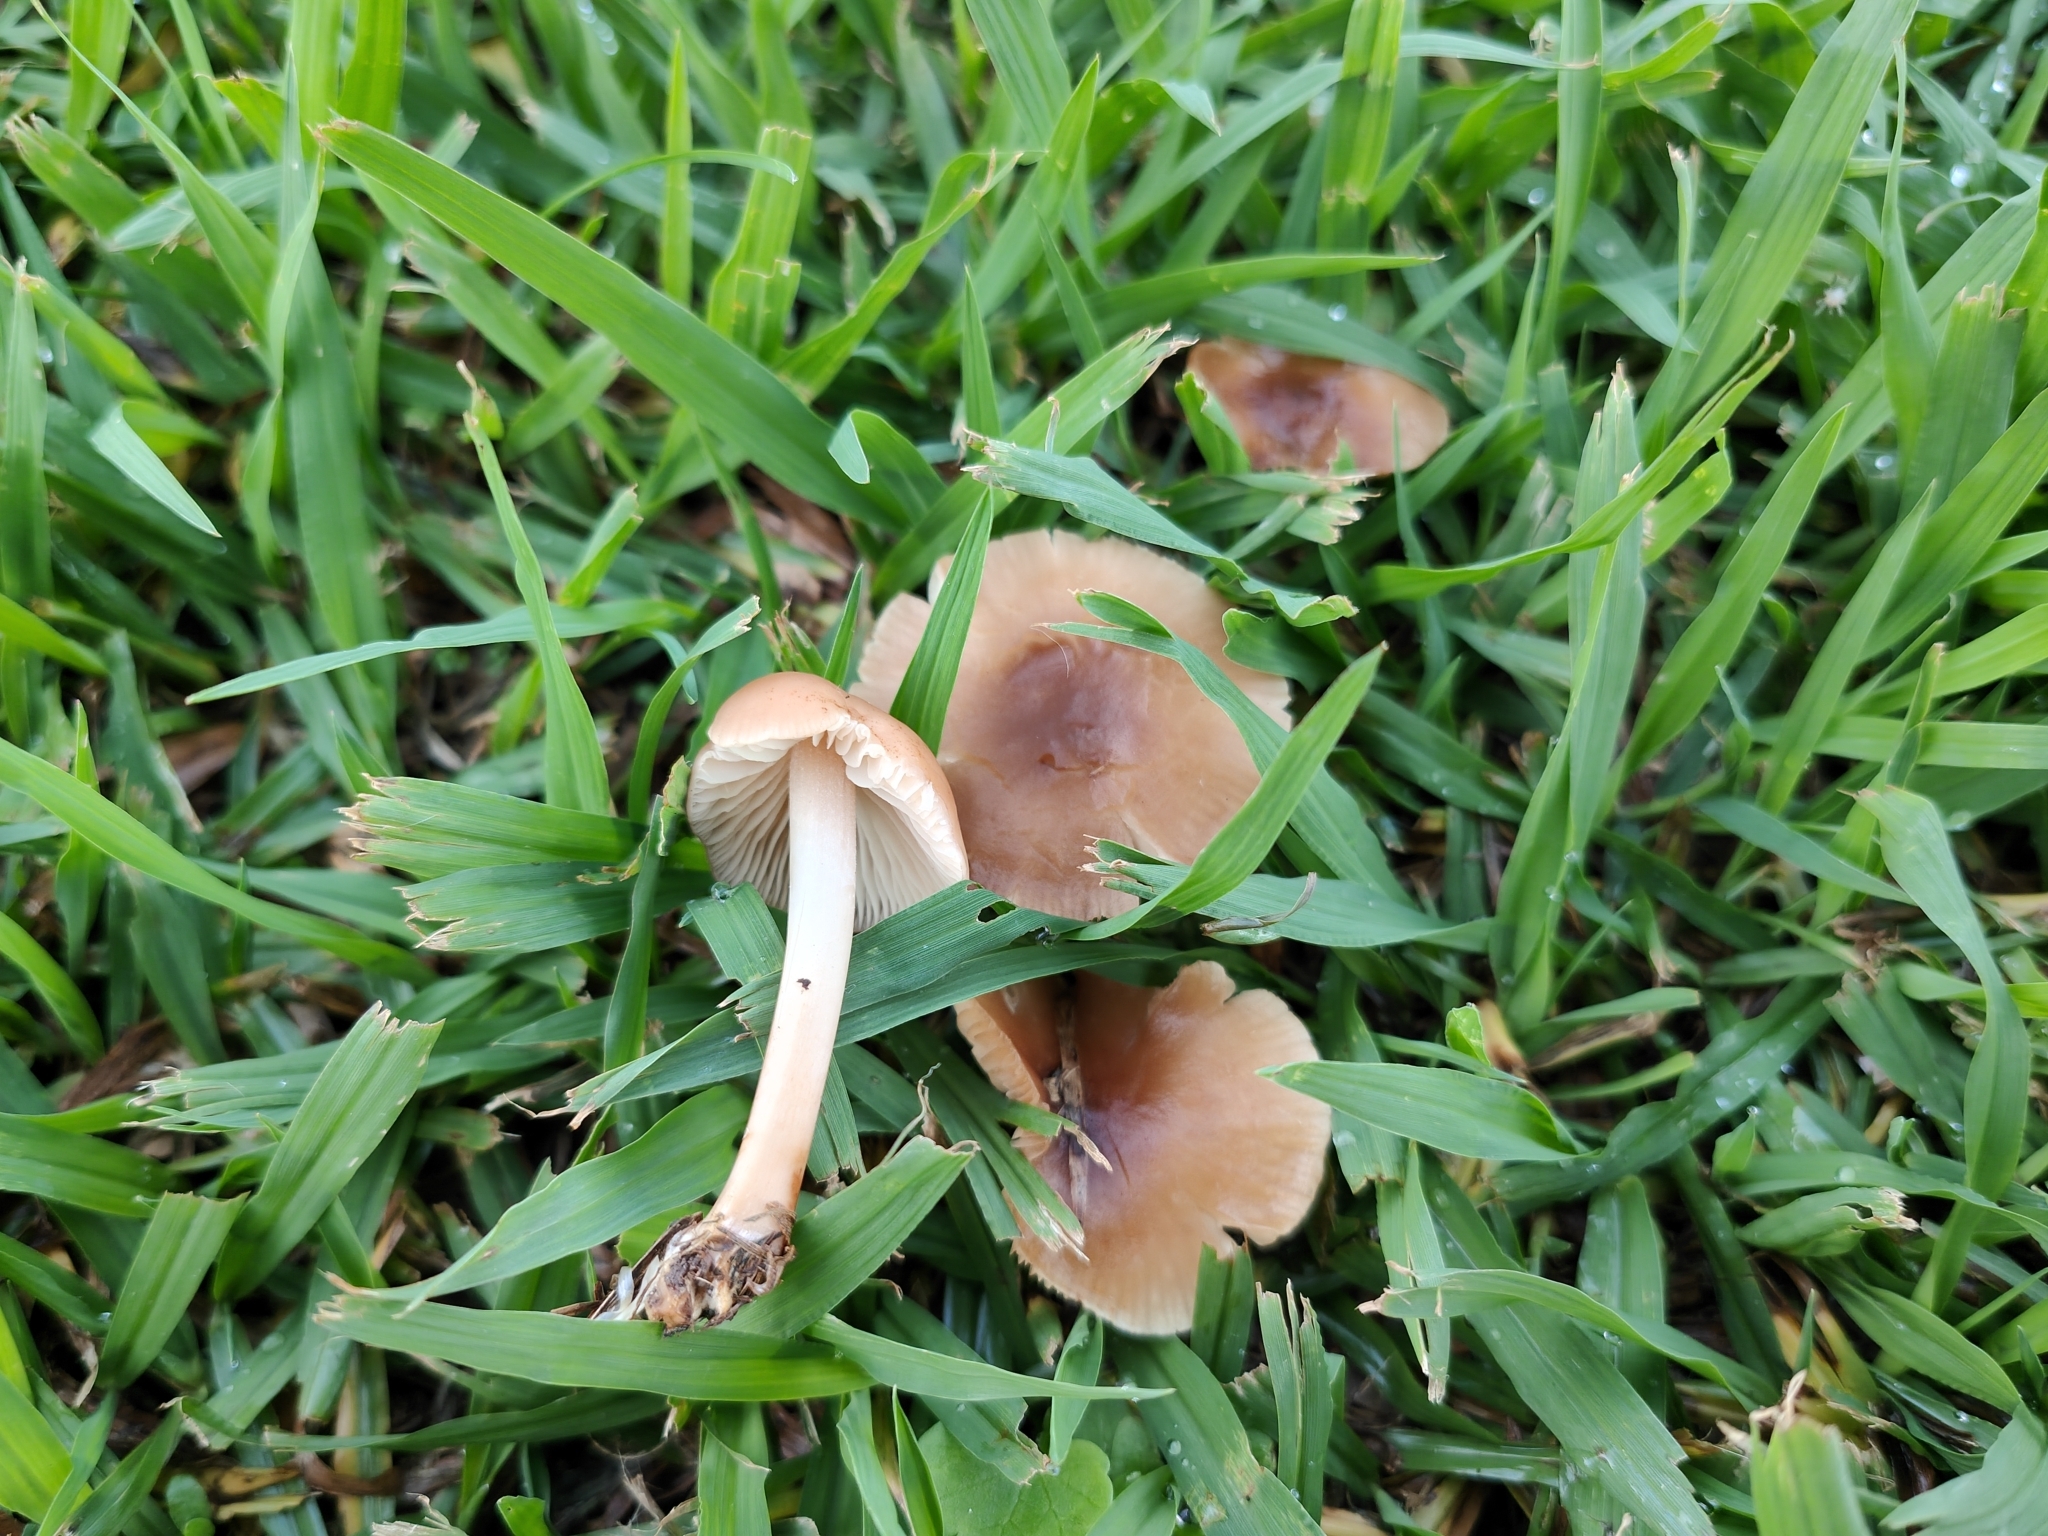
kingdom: Fungi
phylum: Basidiomycota
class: Agaricomycetes
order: Agaricales
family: Marasmiaceae
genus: Marasmius
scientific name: Marasmius collinus
